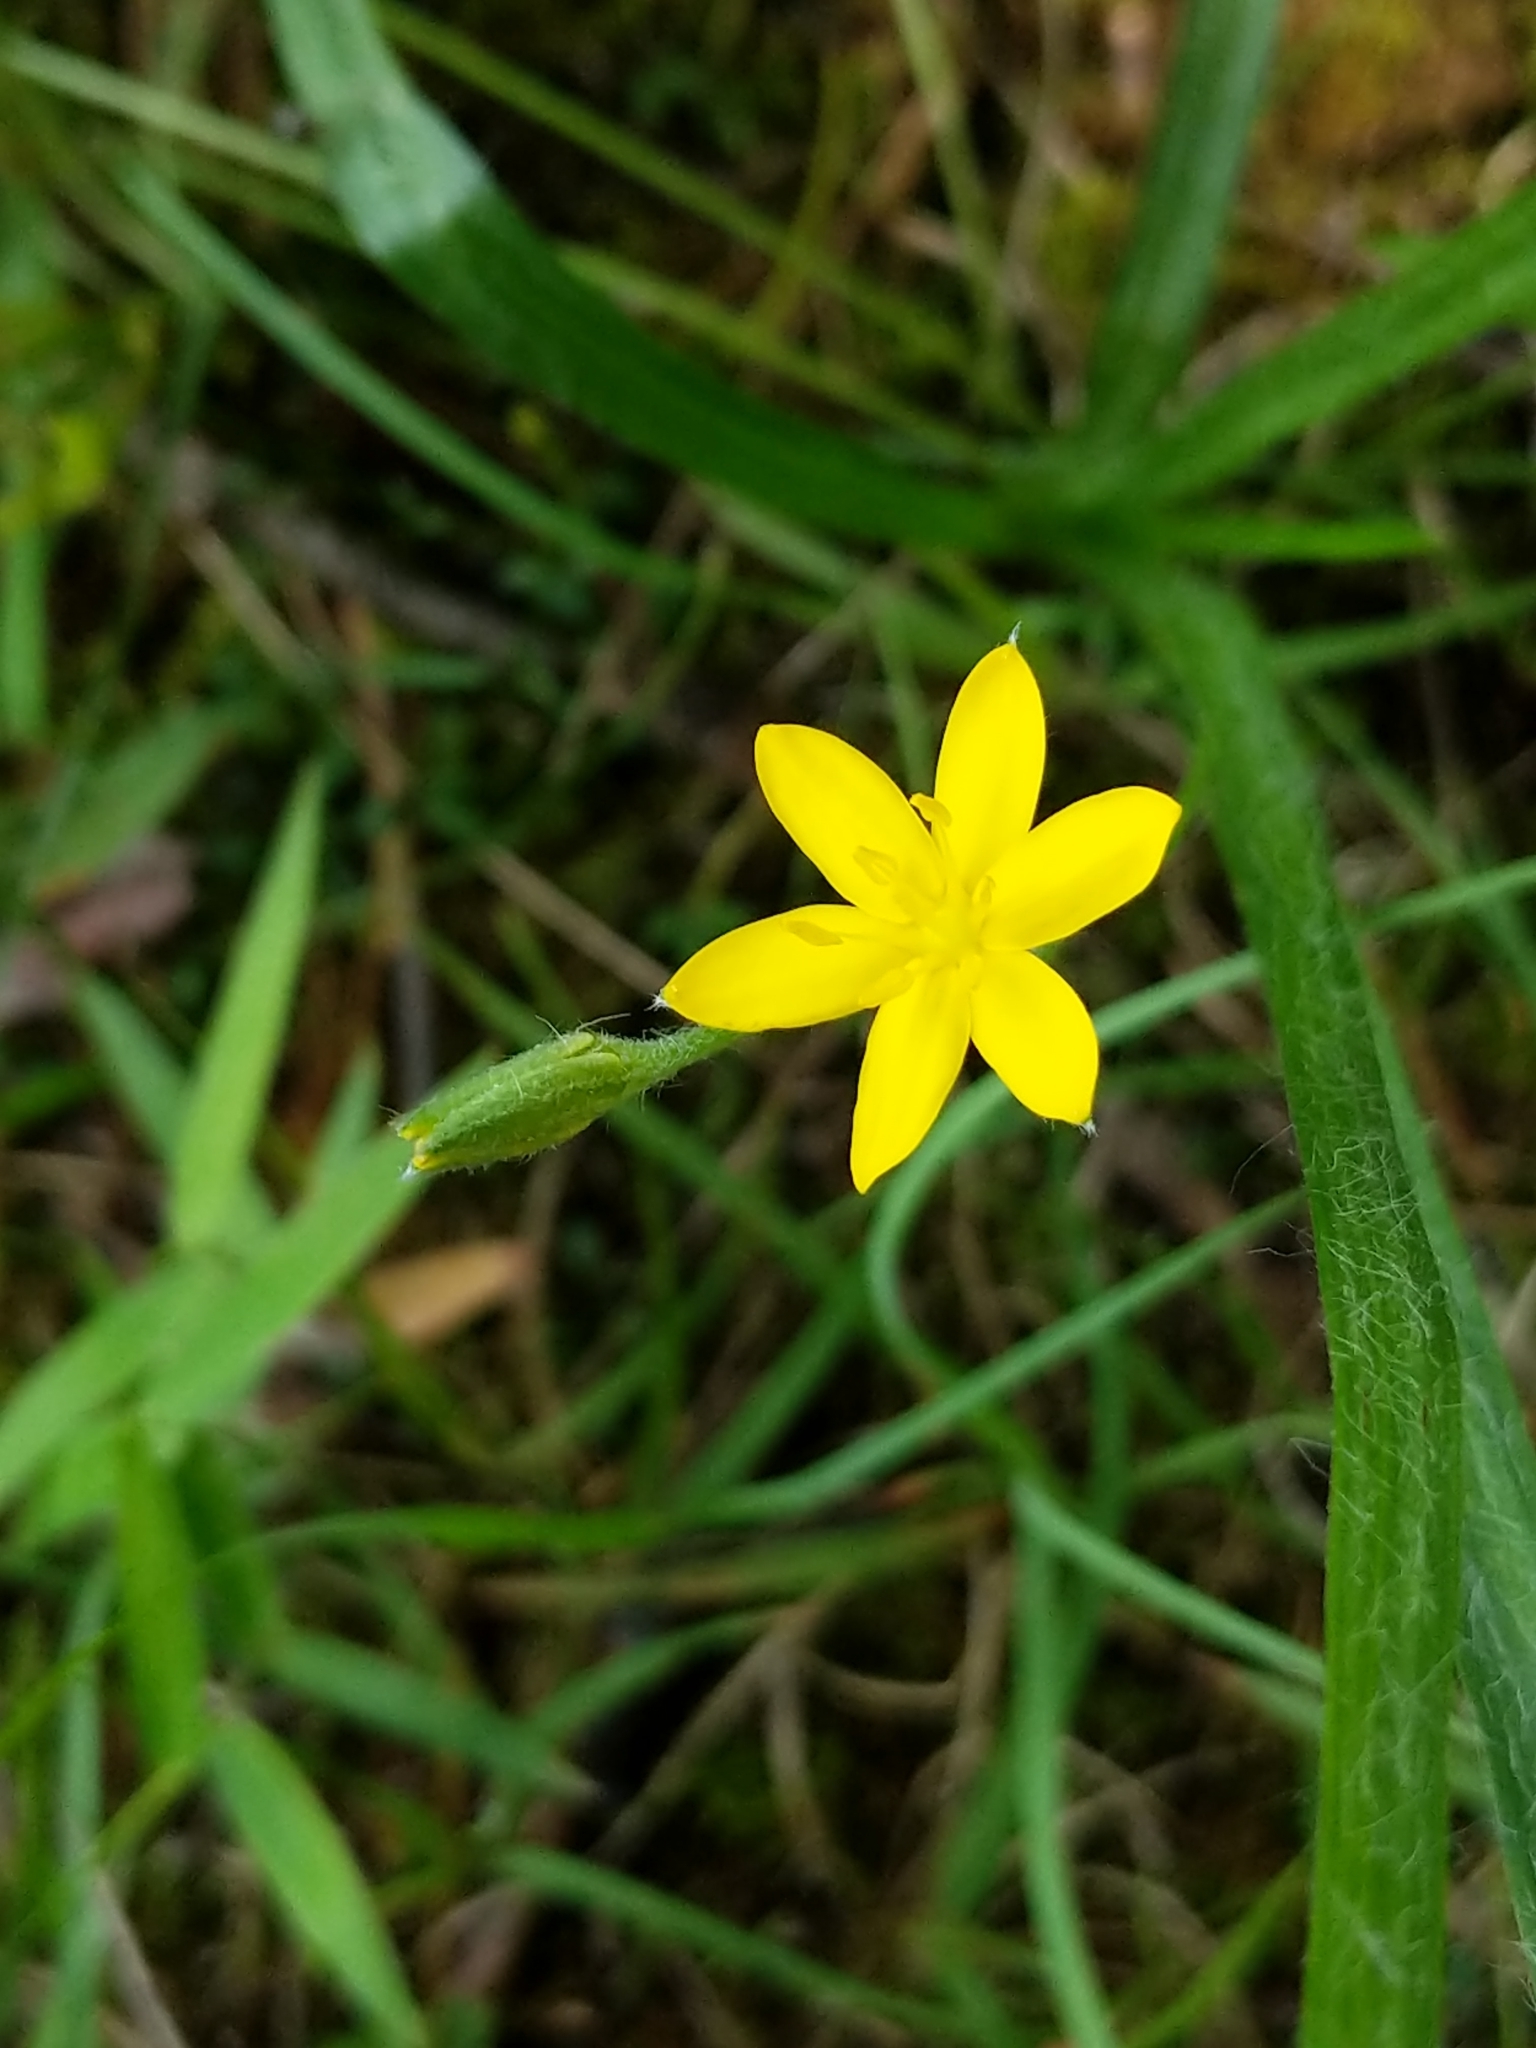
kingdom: Plantae
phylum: Tracheophyta
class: Liliopsida
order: Asparagales
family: Hypoxidaceae
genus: Hypoxis
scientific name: Hypoxis hirsuta
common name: Common goldstar
